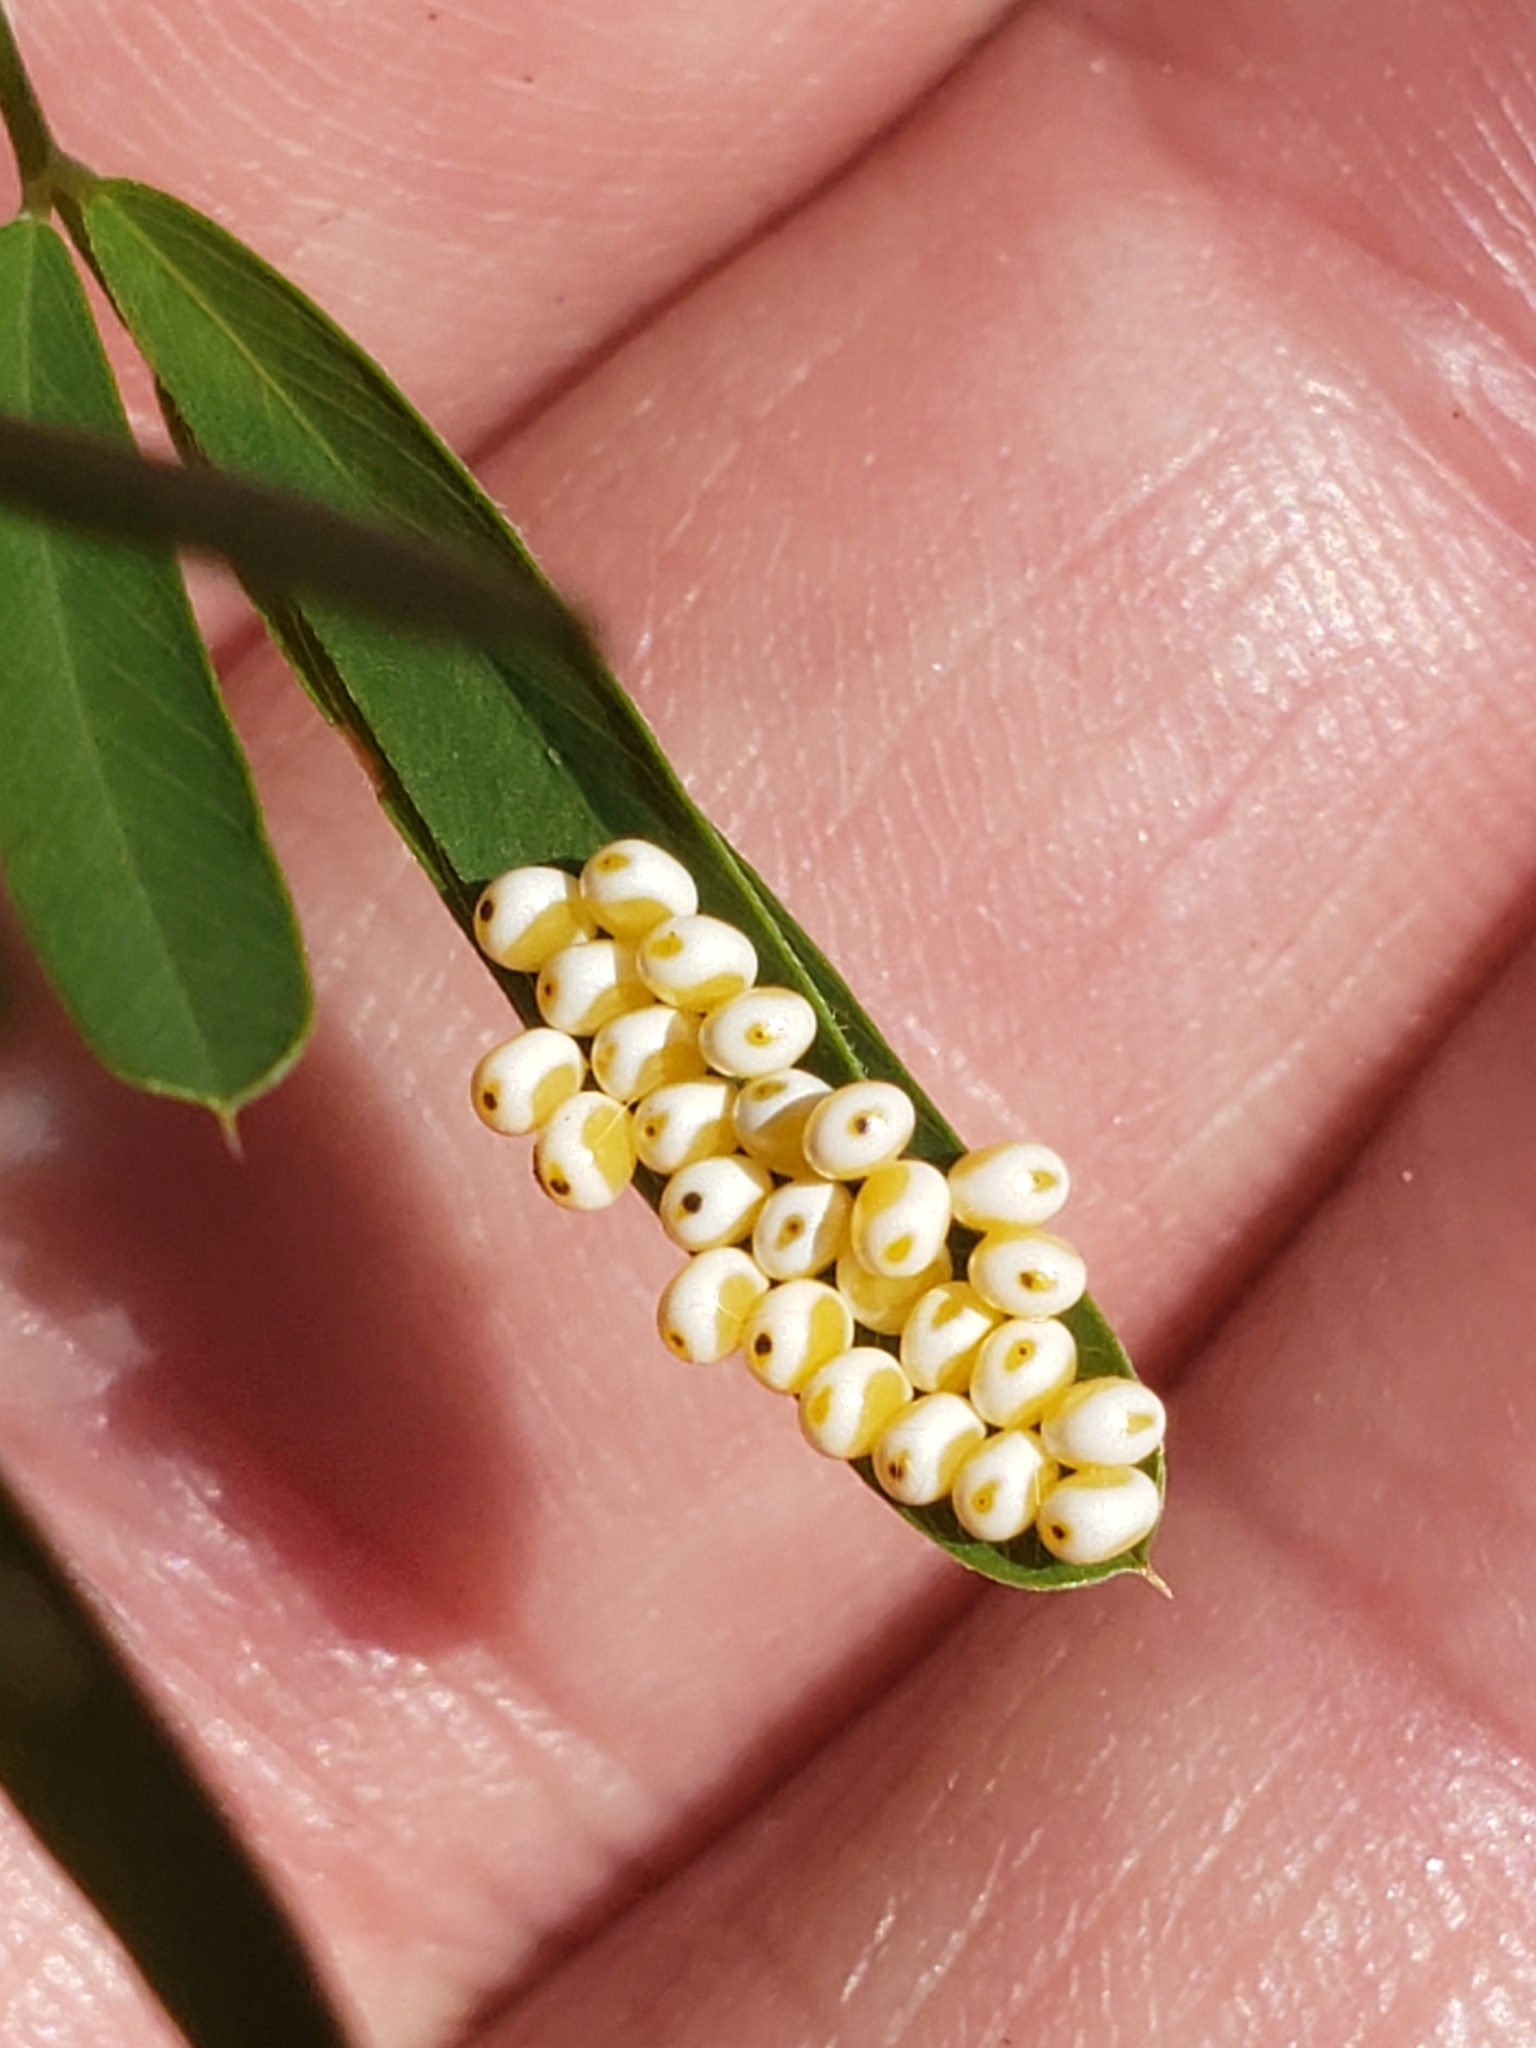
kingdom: Animalia
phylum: Arthropoda
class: Insecta
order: Lepidoptera
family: Saturniidae
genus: Automeris
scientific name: Automeris io
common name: Io moth
